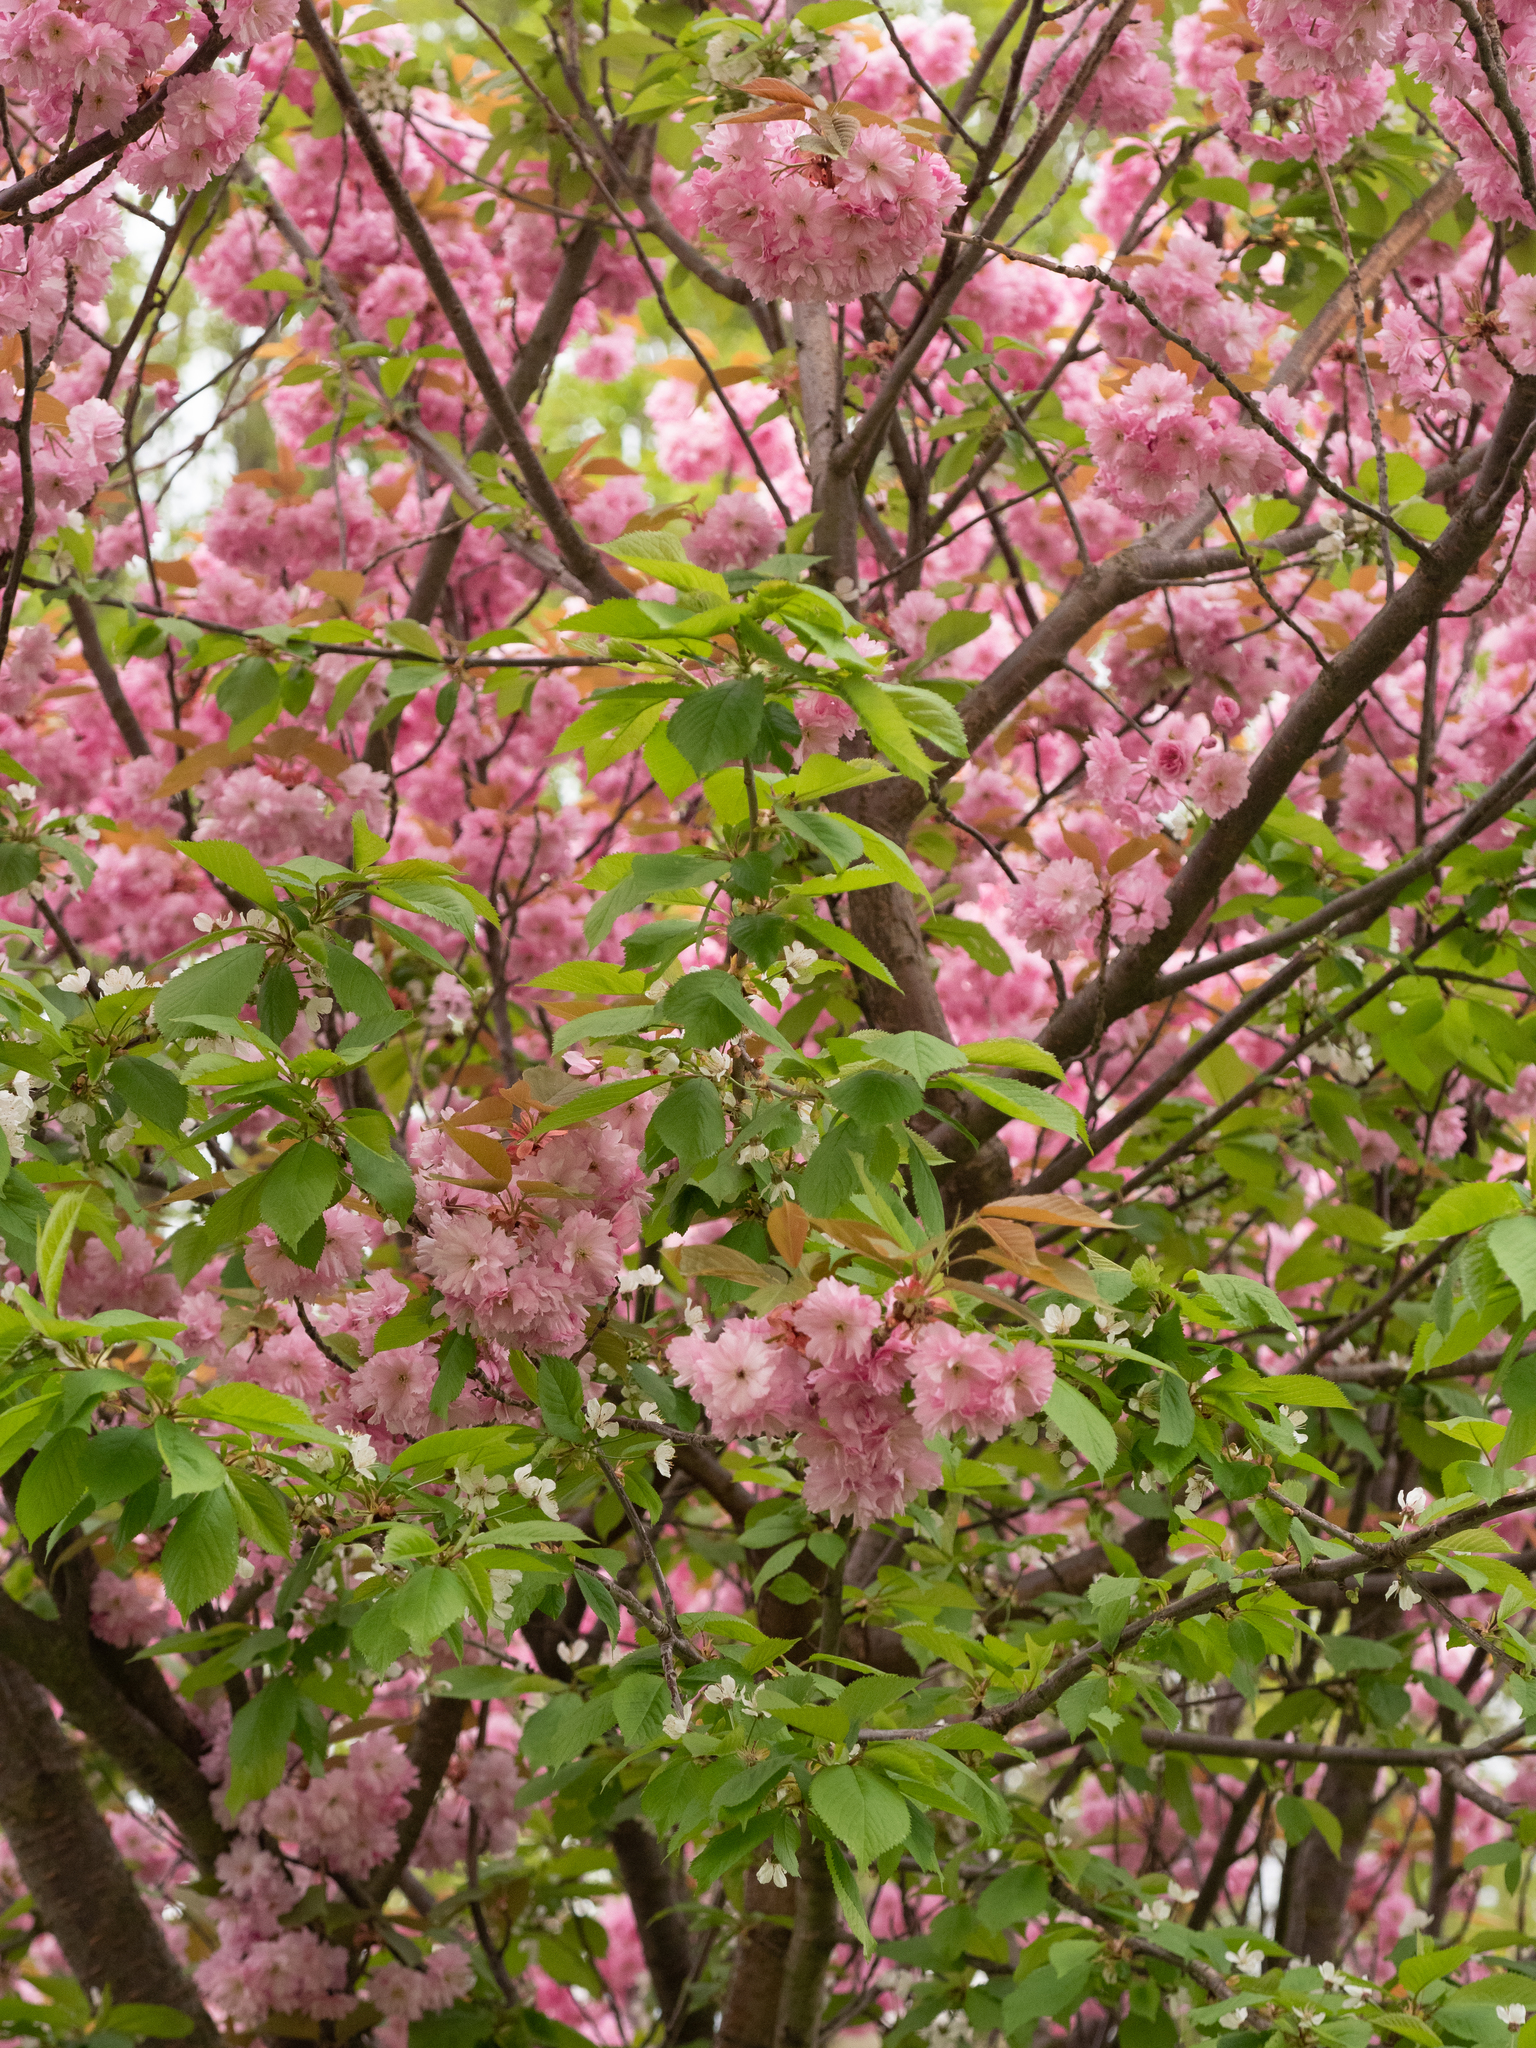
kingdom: Plantae
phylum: Tracheophyta
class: Magnoliopsida
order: Rosales
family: Rosaceae
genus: Prunus
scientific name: Prunus serrulata
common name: Japanese cherry
